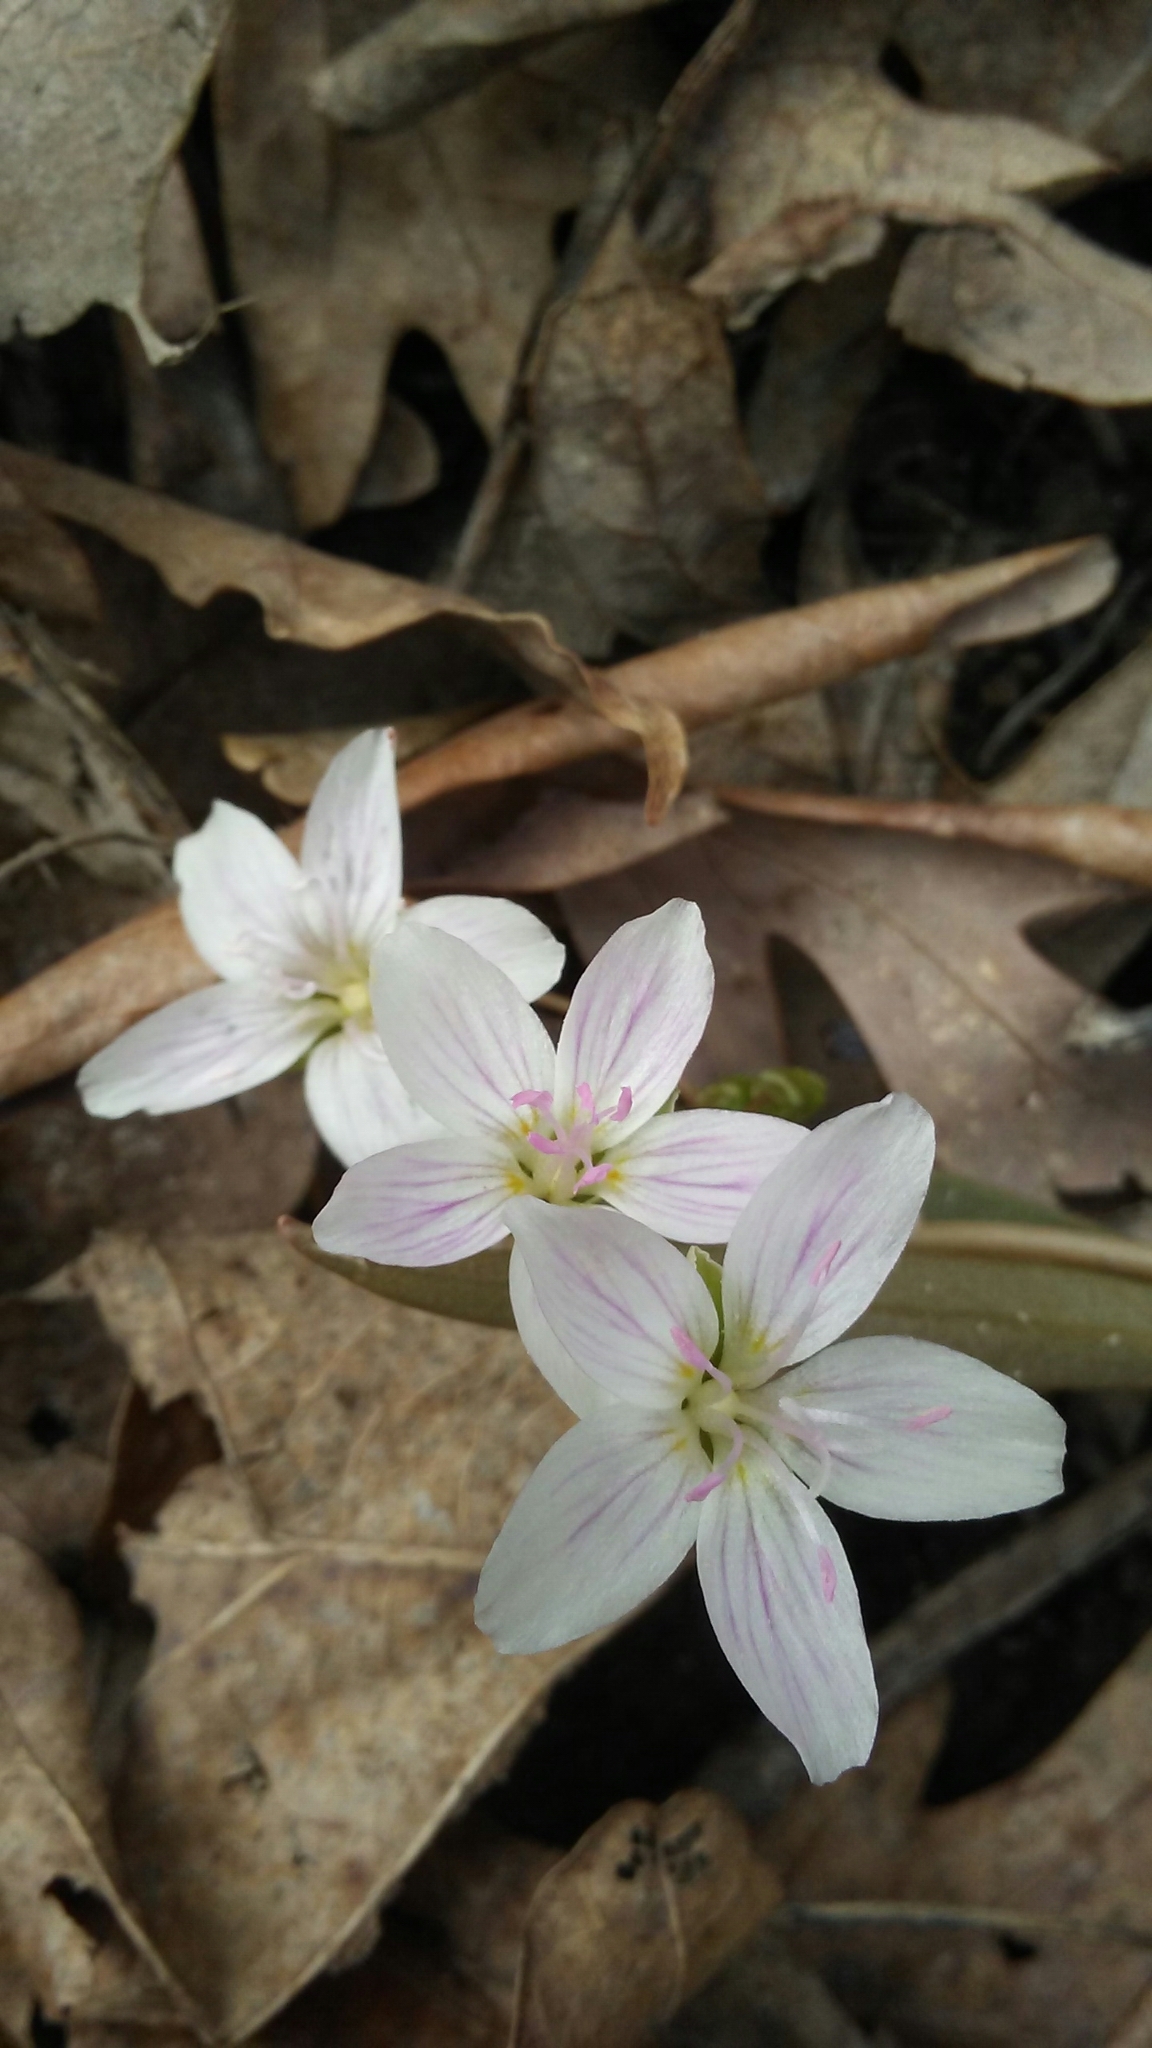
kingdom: Plantae
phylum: Tracheophyta
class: Magnoliopsida
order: Caryophyllales
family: Montiaceae
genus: Claytonia
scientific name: Claytonia virginica
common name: Virginia springbeauty
